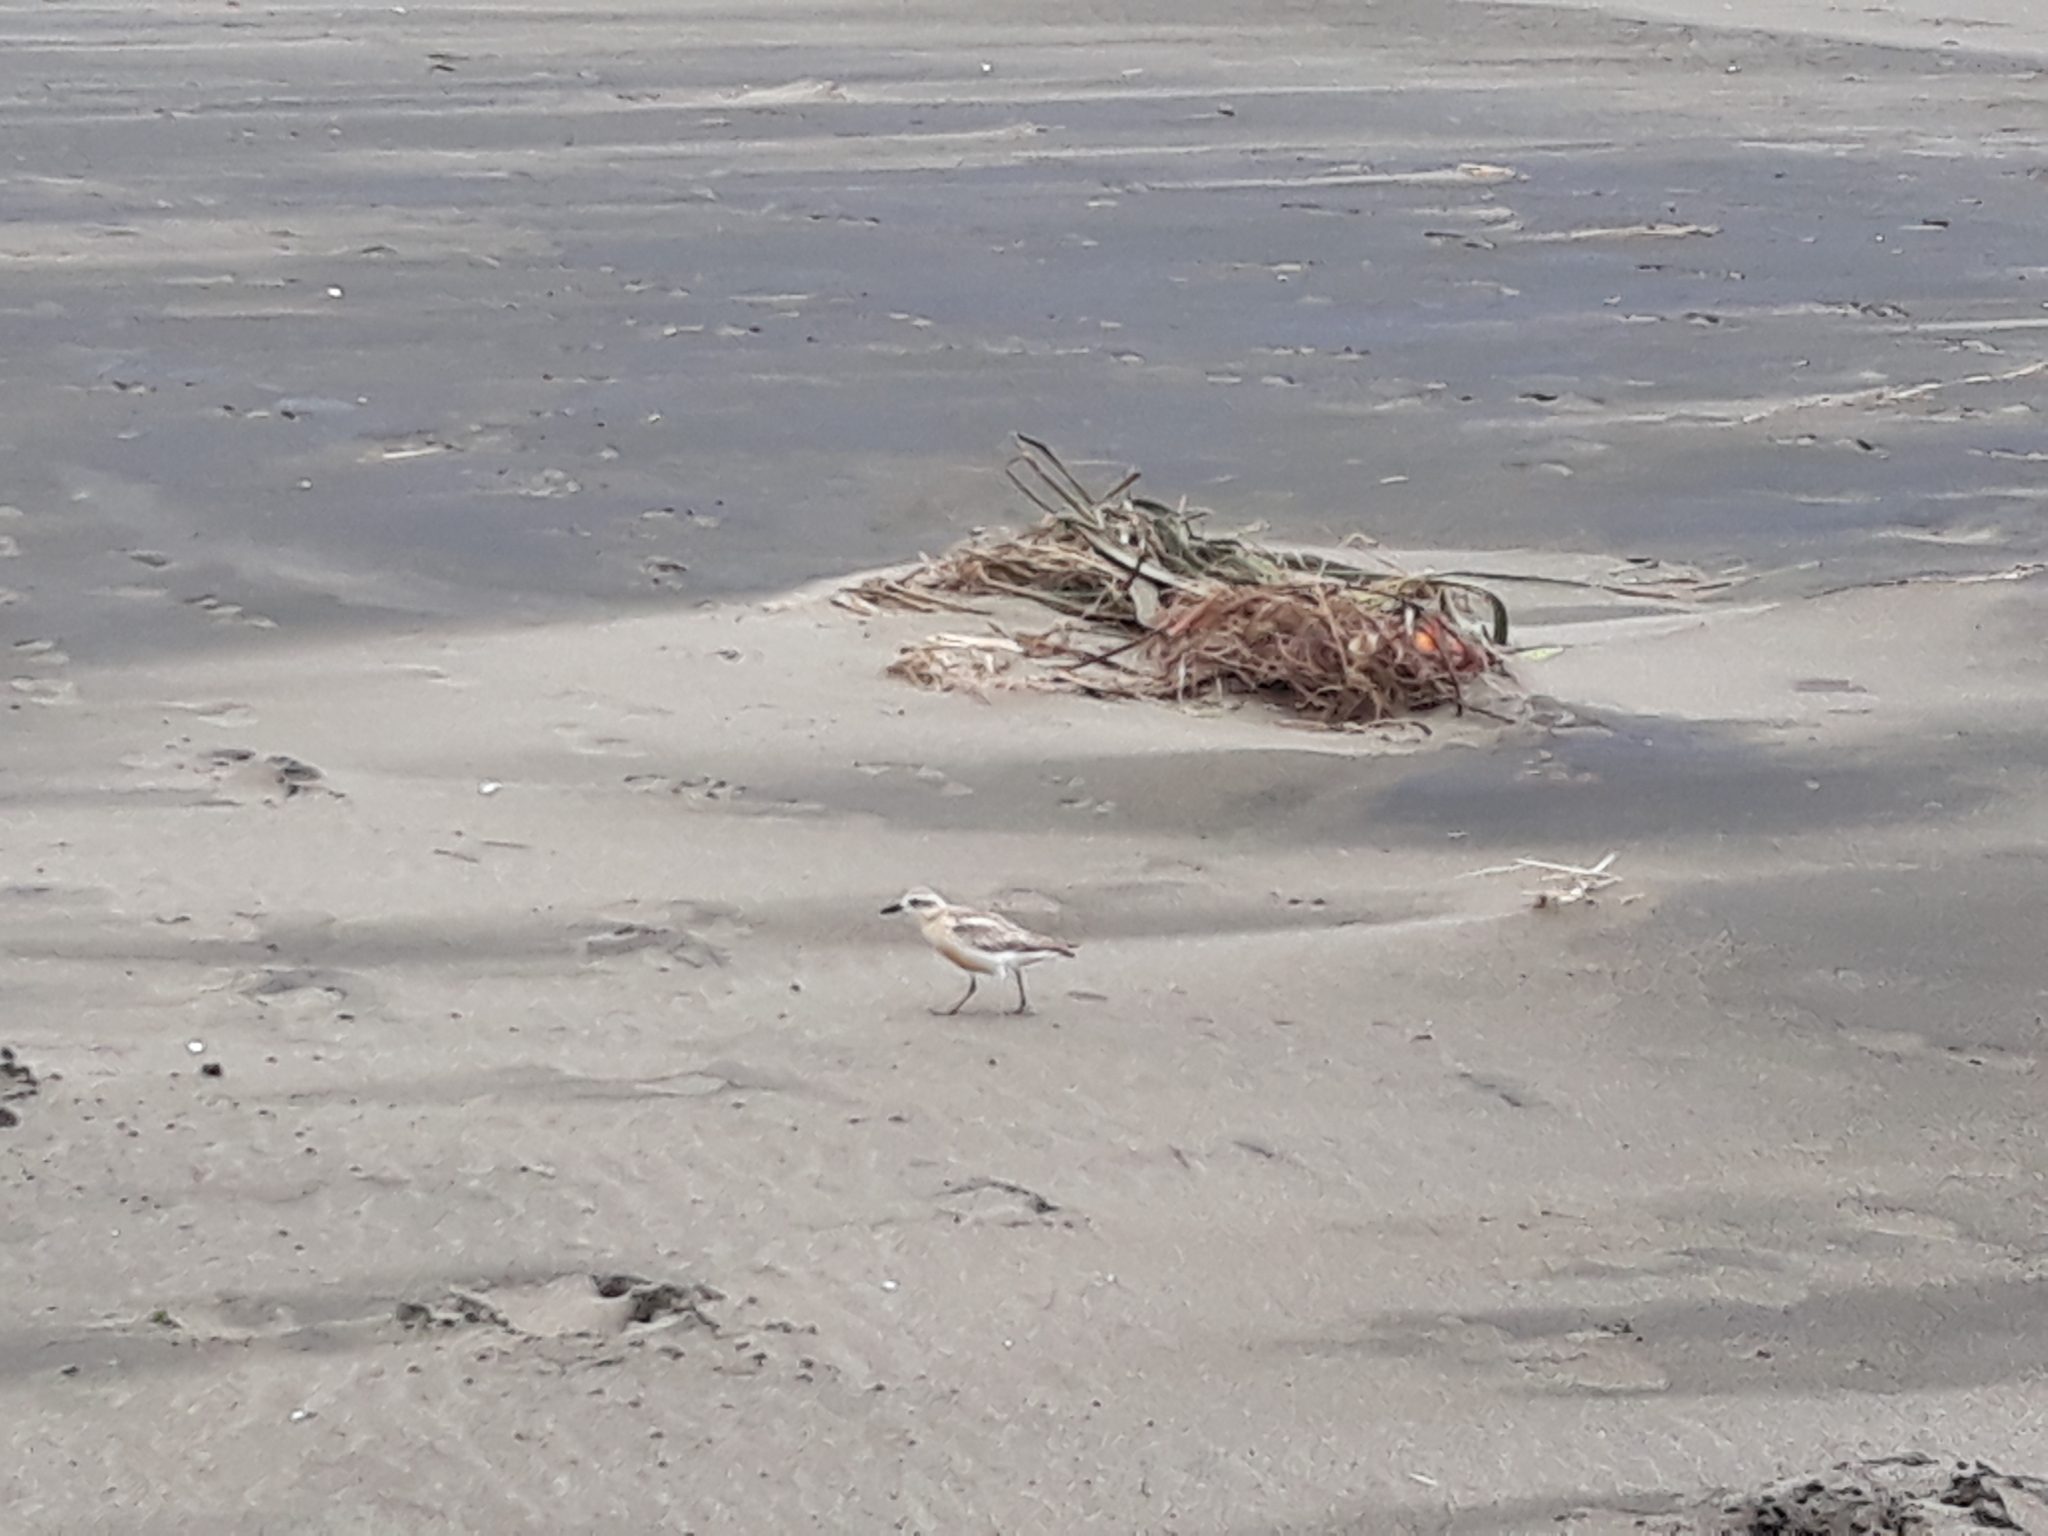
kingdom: Animalia
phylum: Chordata
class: Aves
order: Charadriiformes
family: Charadriidae
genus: Anarhynchus
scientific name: Anarhynchus
